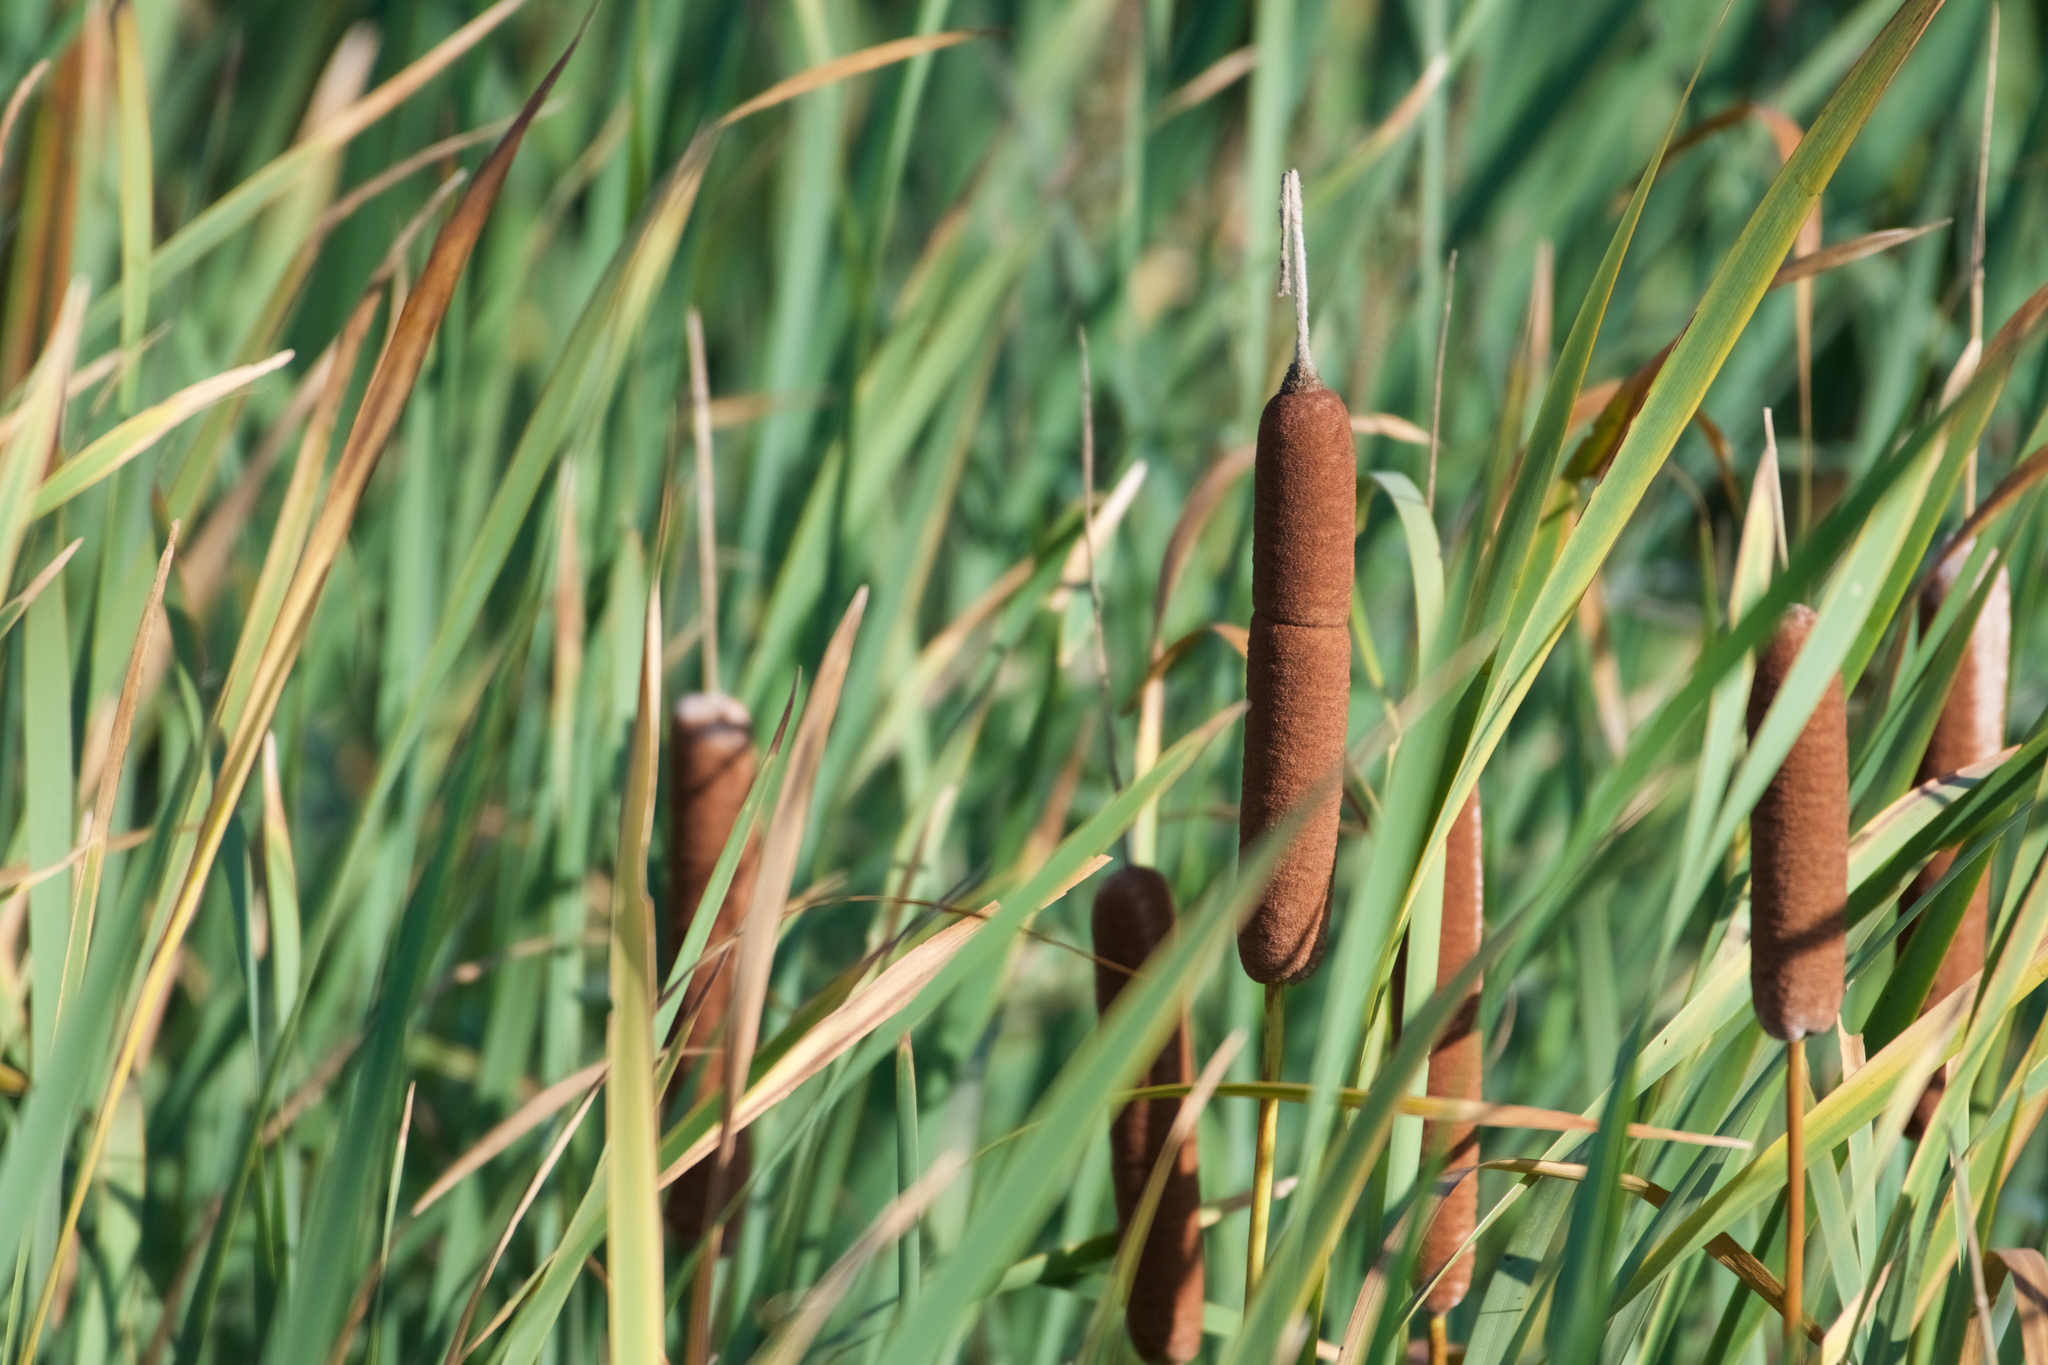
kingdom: Plantae
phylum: Tracheophyta
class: Liliopsida
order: Poales
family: Typhaceae
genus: Typha
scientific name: Typha latifolia
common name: Broadleaf cattail
